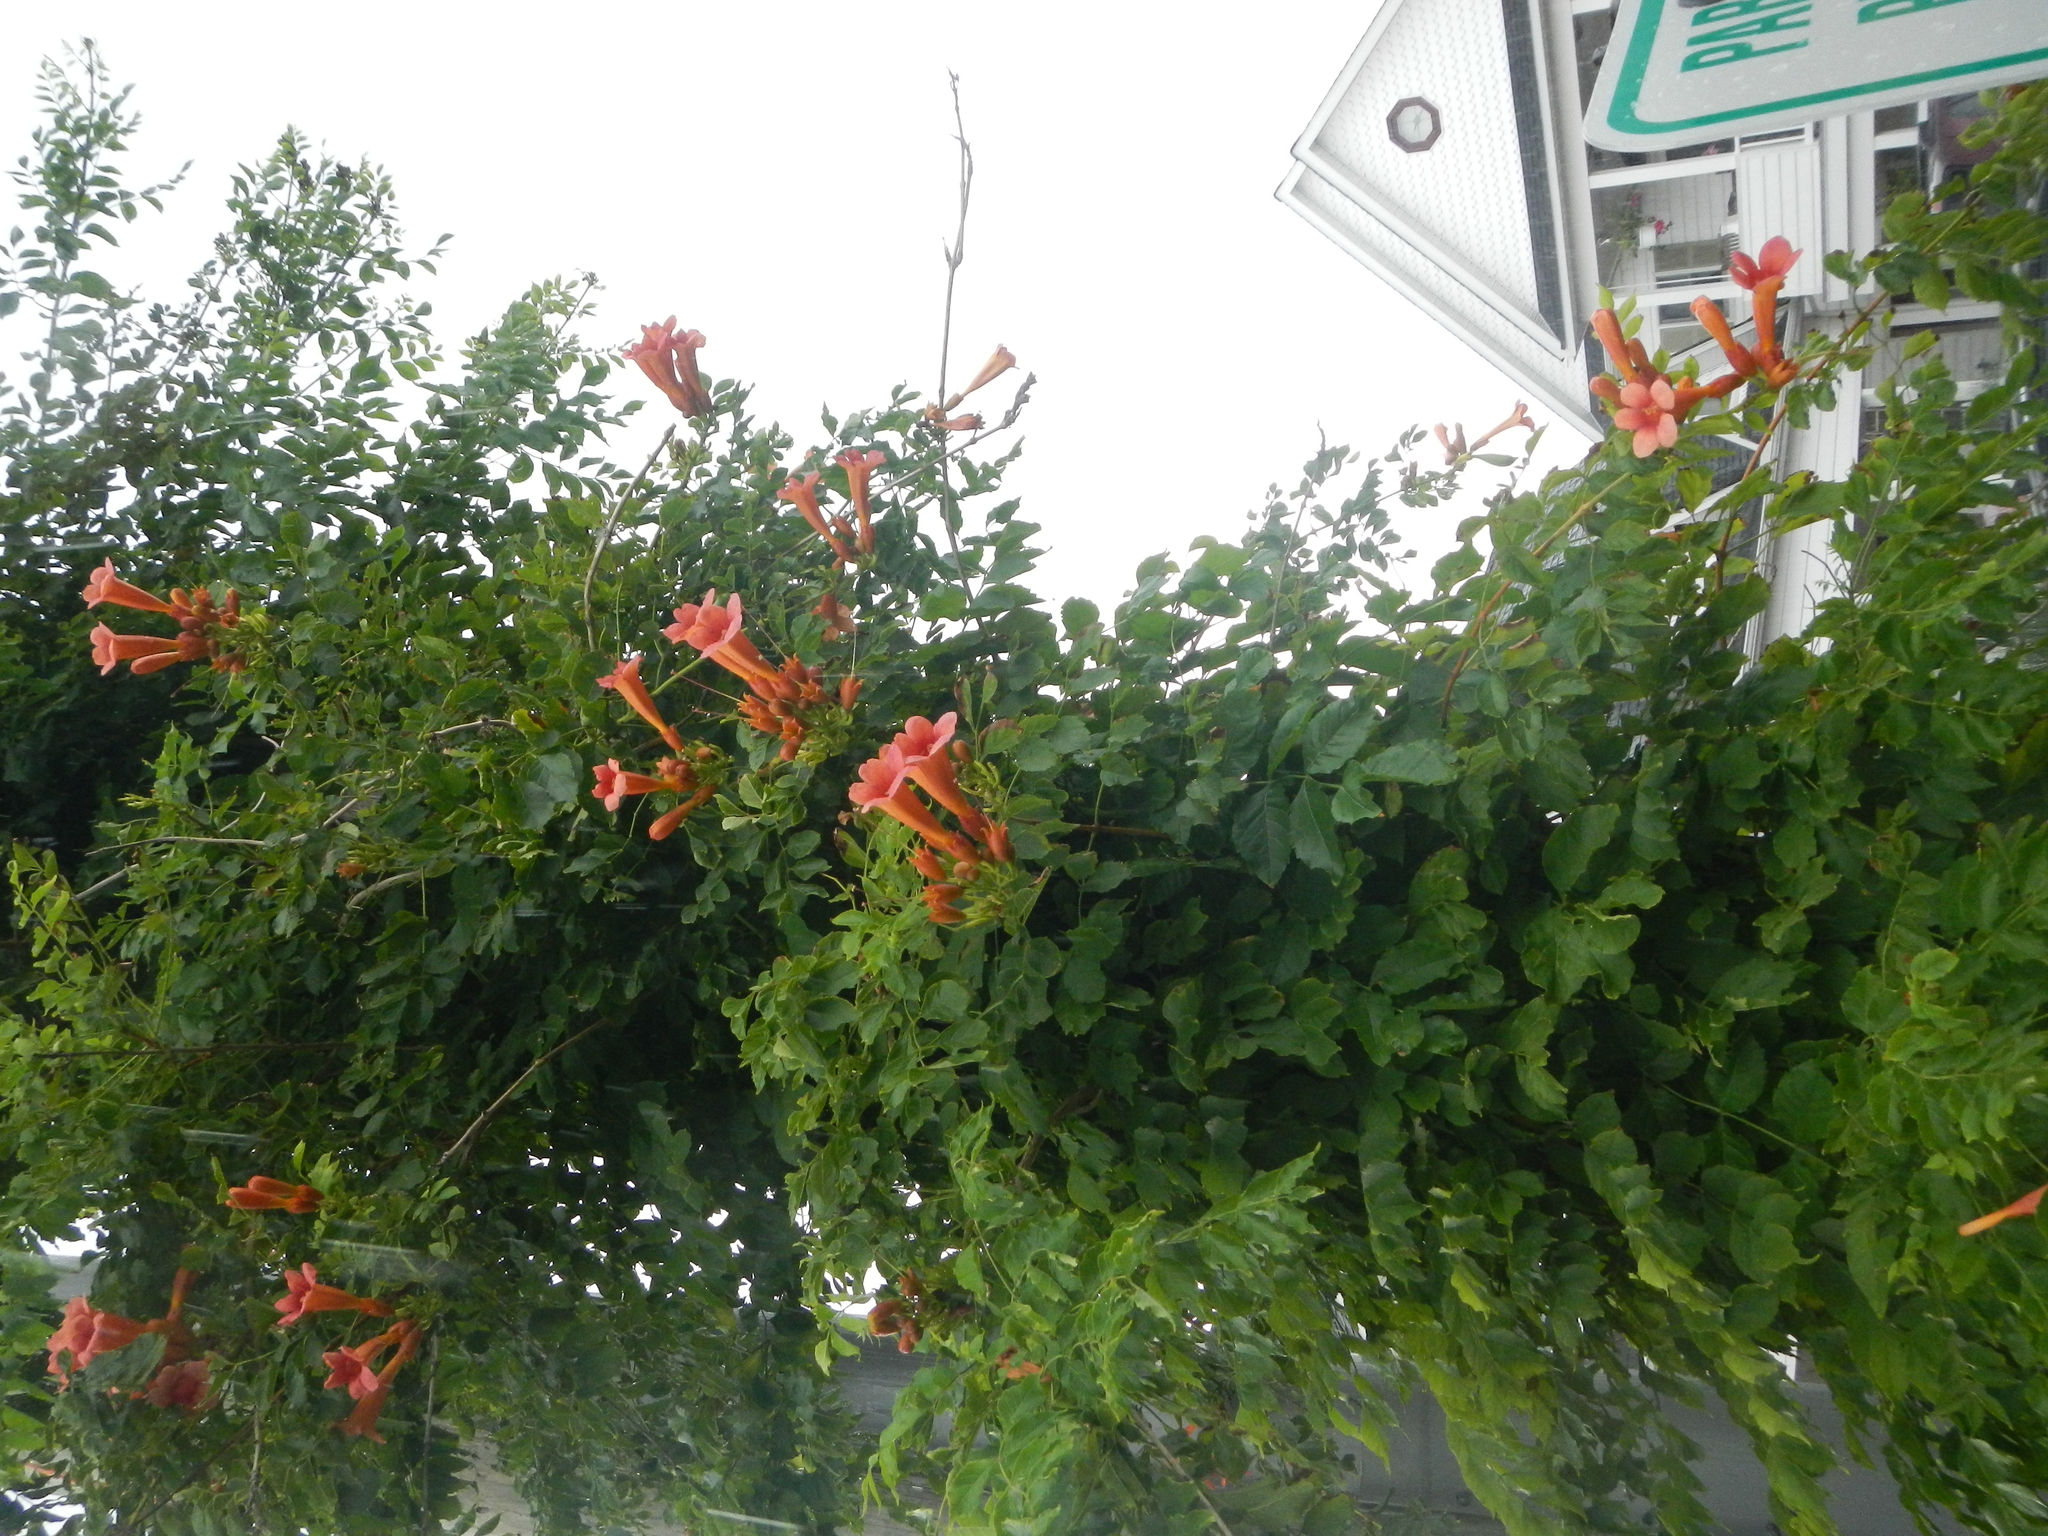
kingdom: Plantae
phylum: Tracheophyta
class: Magnoliopsida
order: Lamiales
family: Bignoniaceae
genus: Campsis
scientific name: Campsis radicans
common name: Trumpet-creeper
